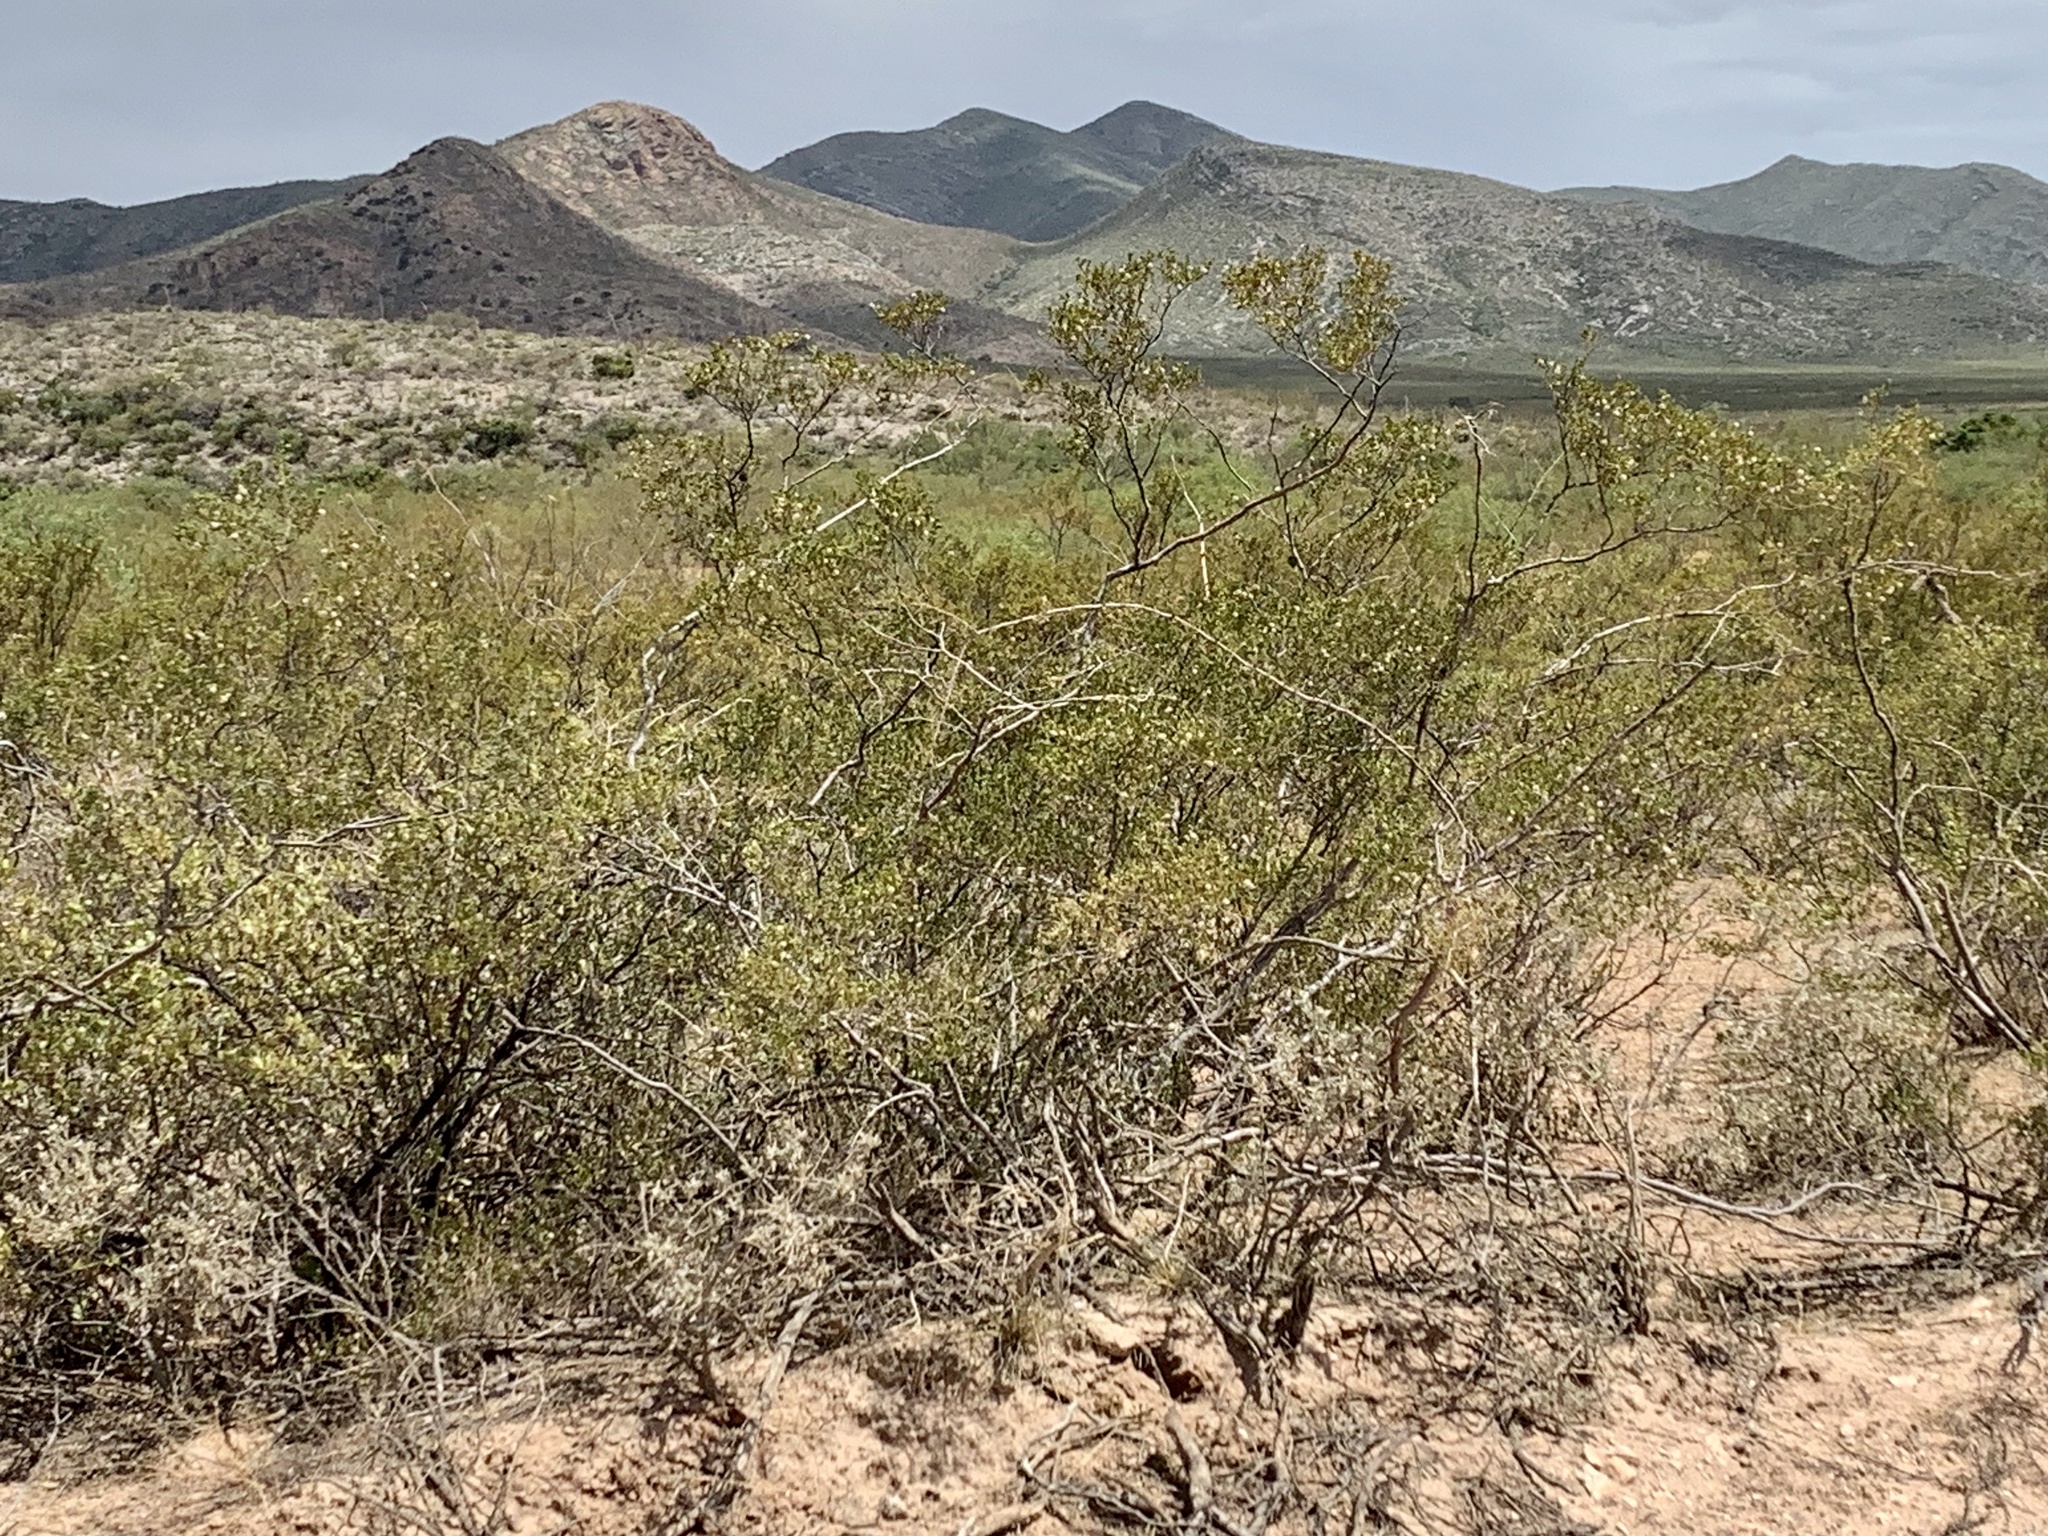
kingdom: Plantae
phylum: Tracheophyta
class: Magnoliopsida
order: Zygophyllales
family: Zygophyllaceae
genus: Larrea
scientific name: Larrea tridentata
